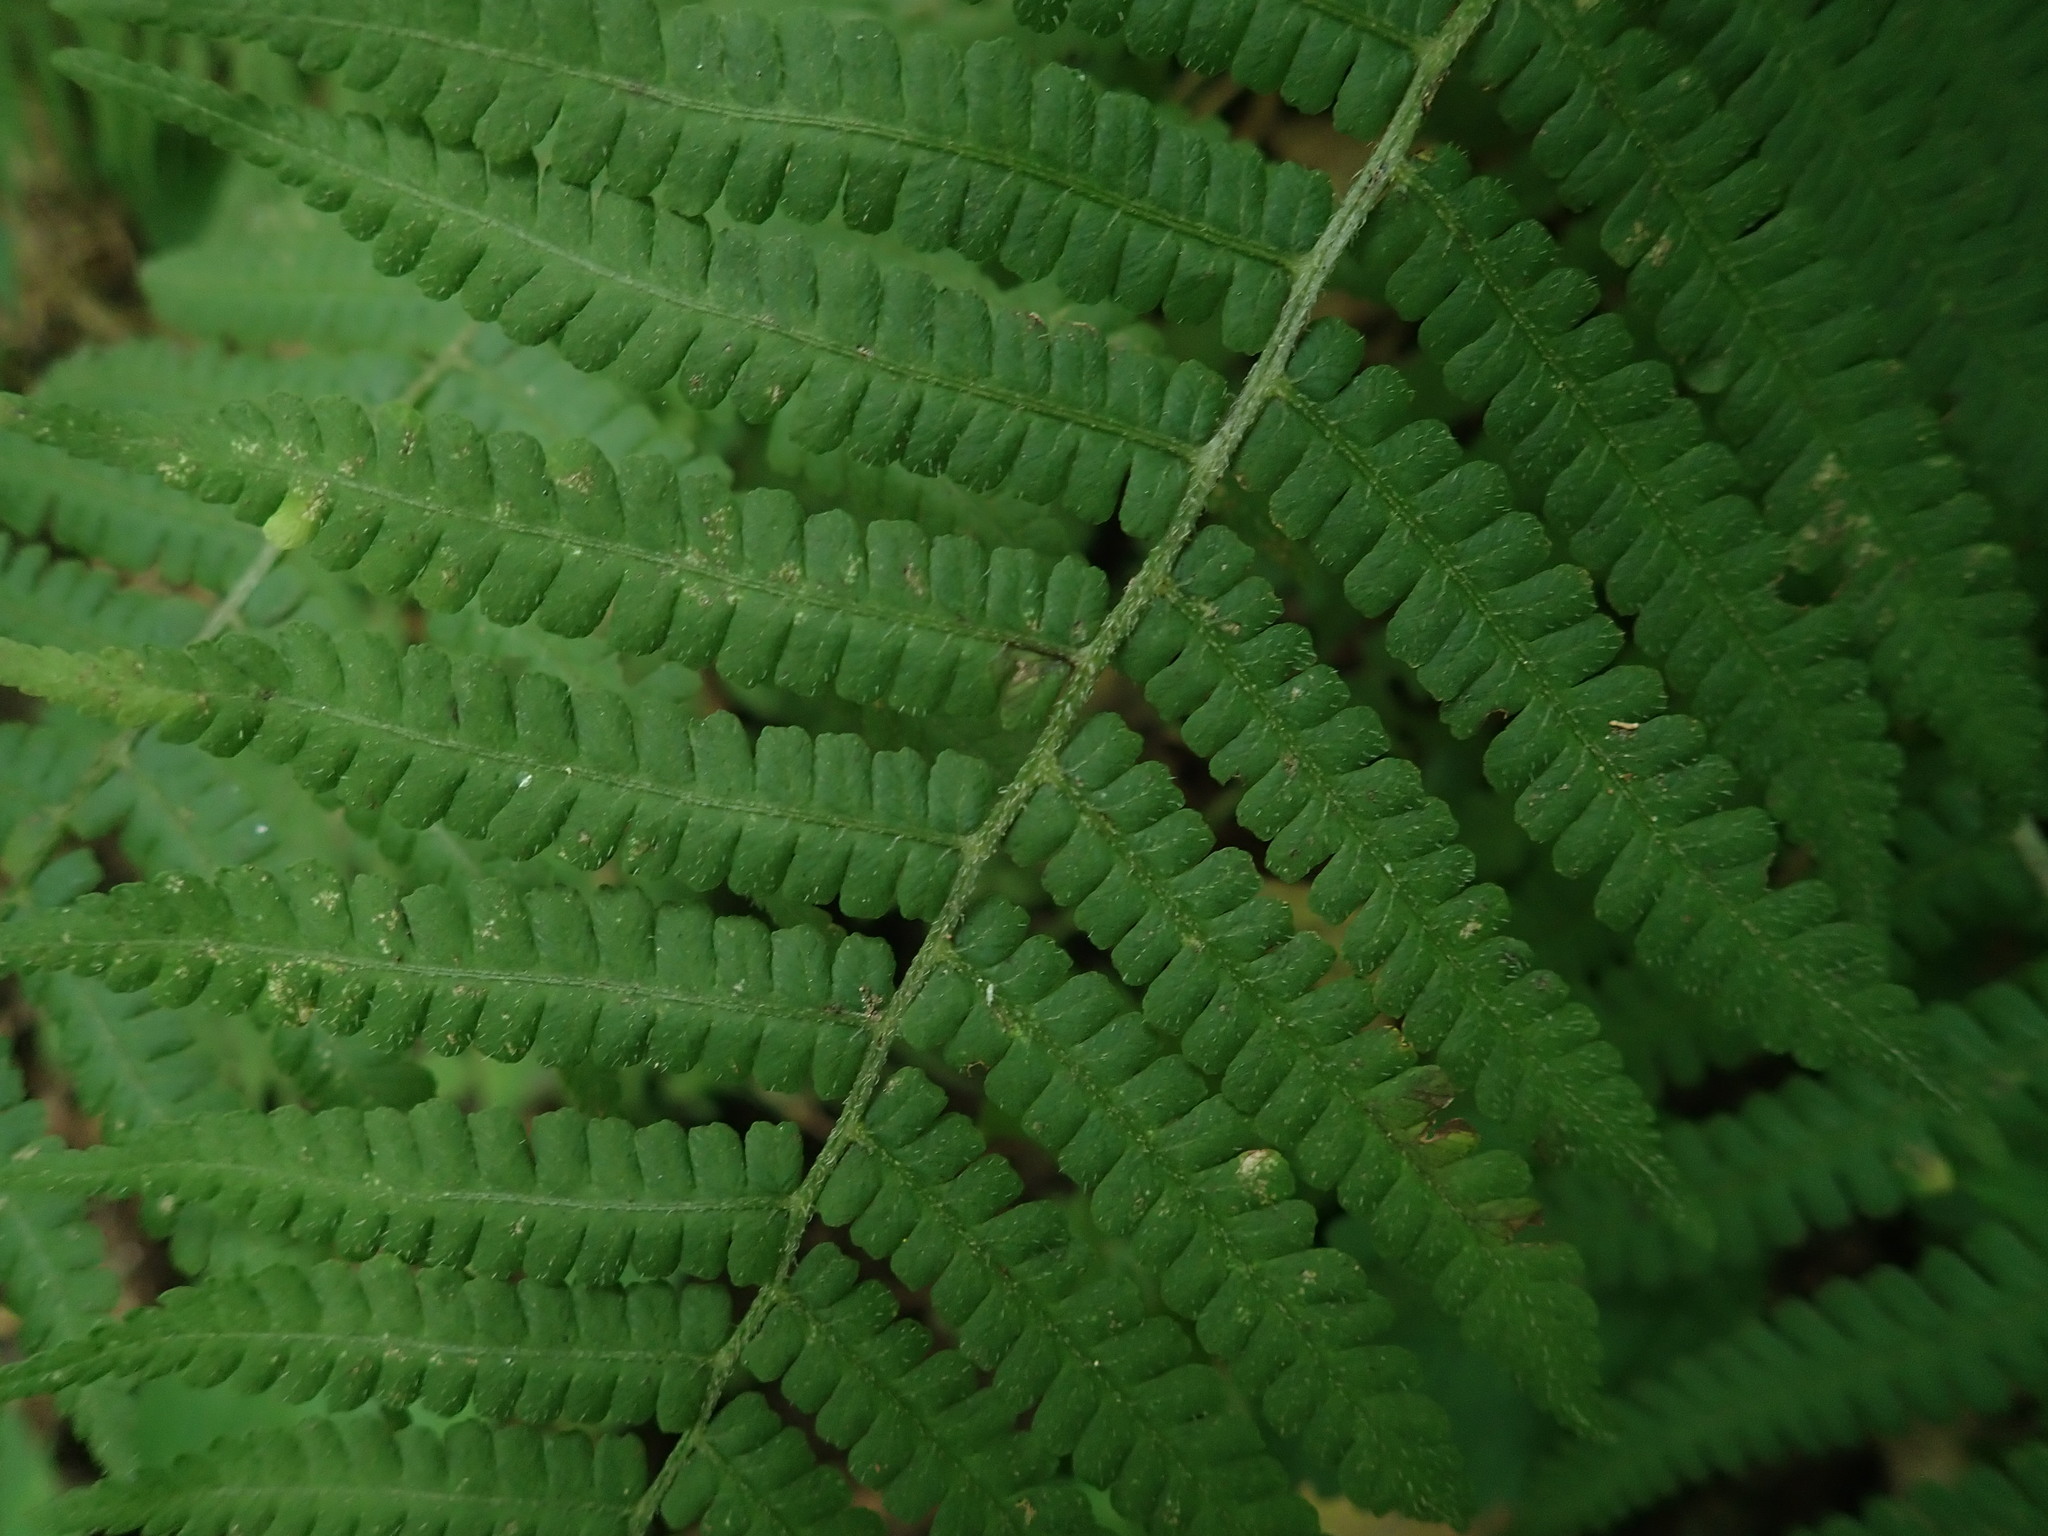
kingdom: Plantae
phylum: Tracheophyta
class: Polypodiopsida
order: Polypodiales
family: Athyriaceae
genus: Deparia
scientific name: Deparia acrostichoides
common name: Silver false spleenwort
